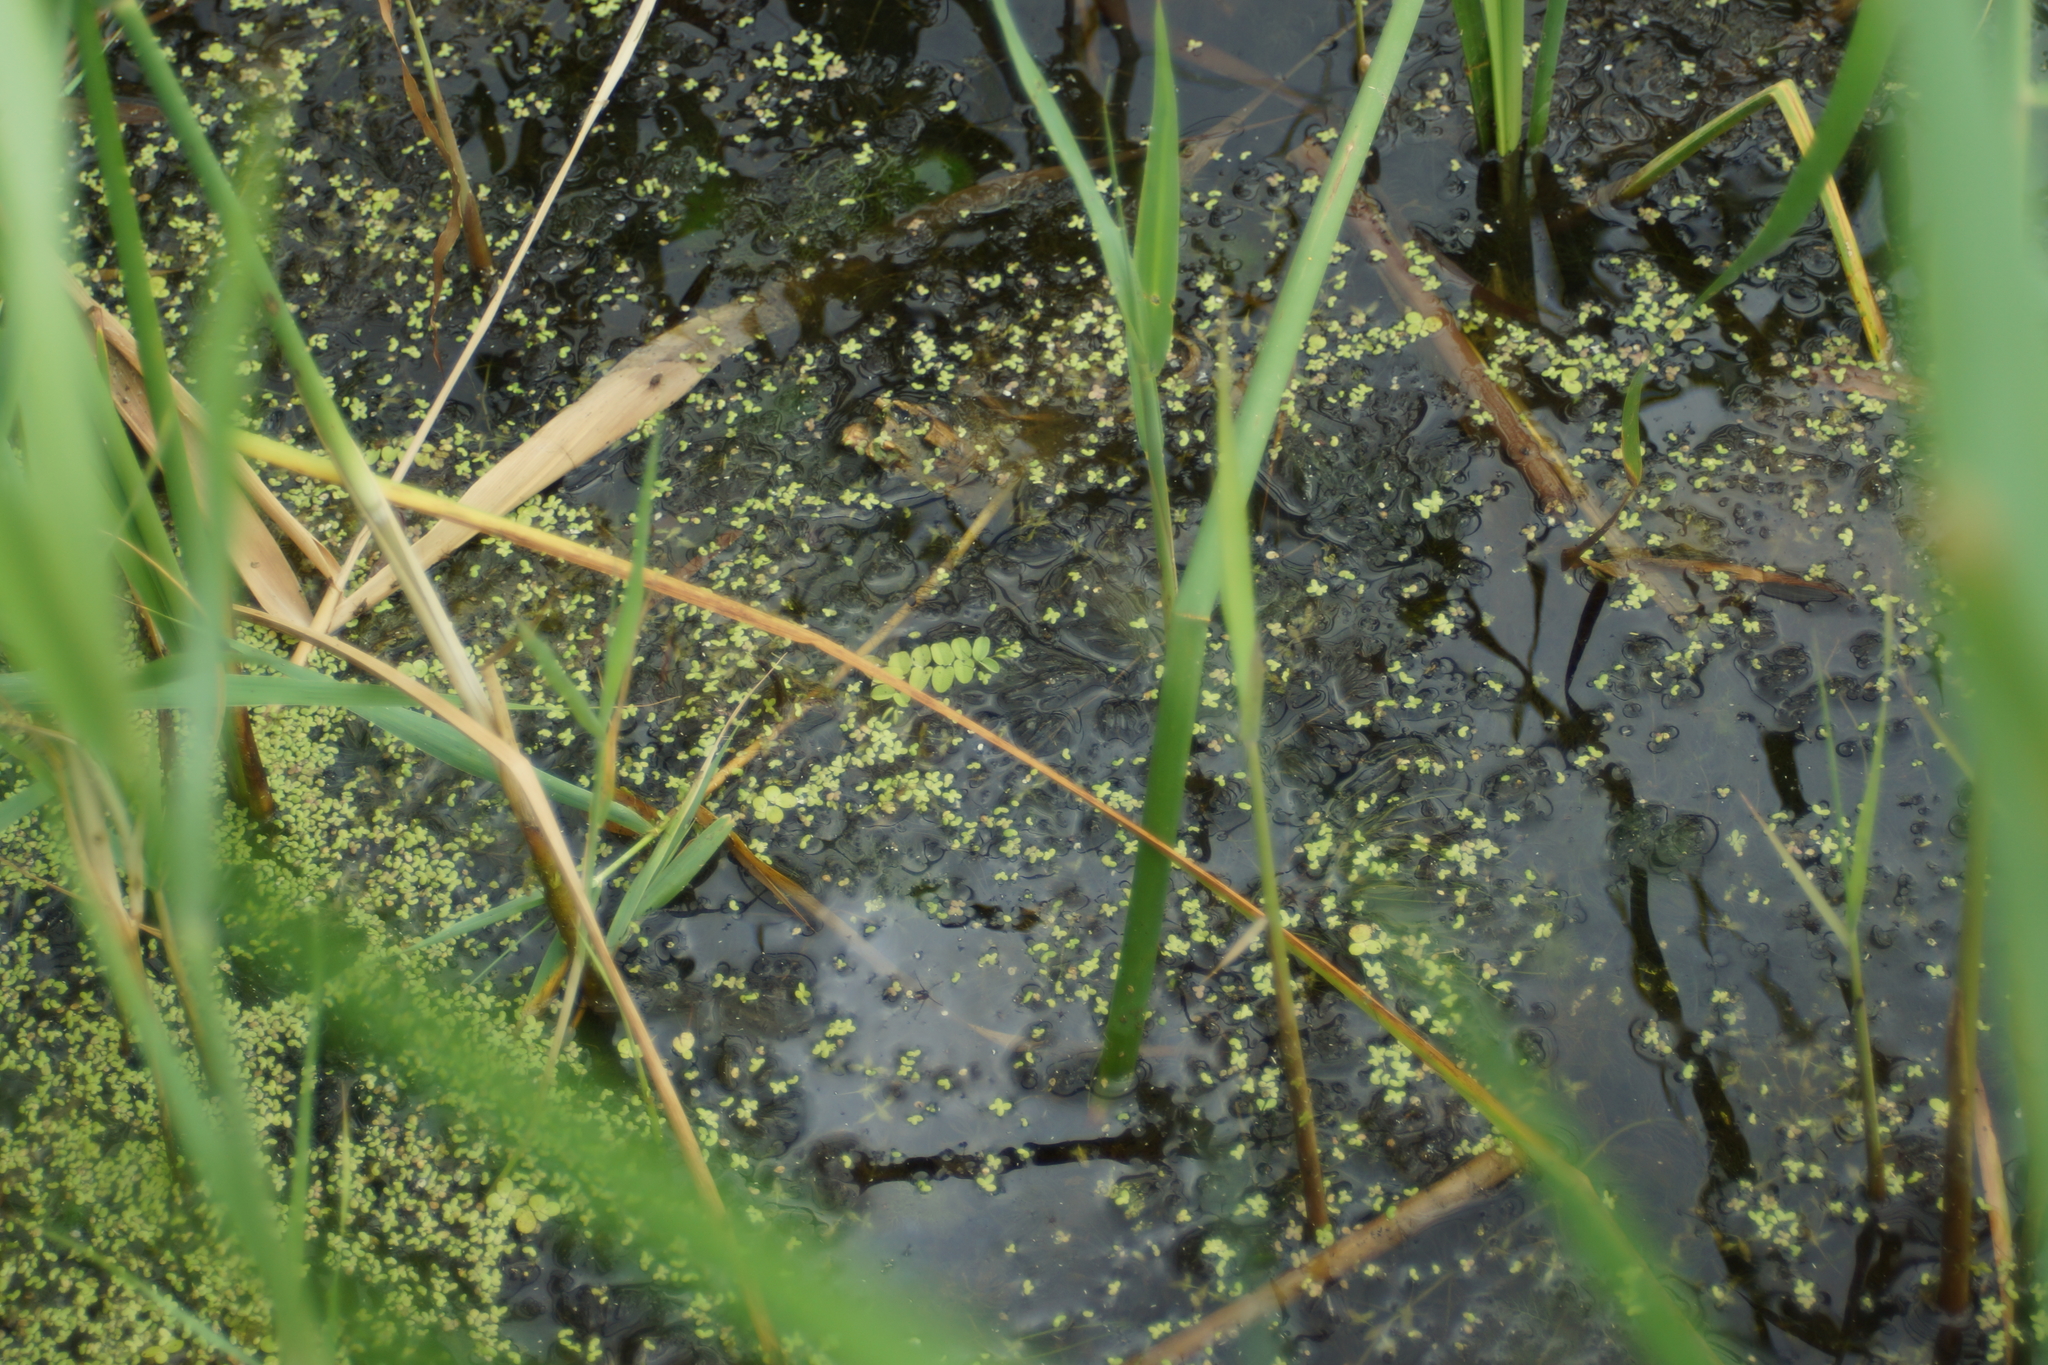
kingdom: Plantae
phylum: Tracheophyta
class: Polypodiopsida
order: Salviniales
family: Salviniaceae
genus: Salvinia
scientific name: Salvinia natans
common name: Floating fern
